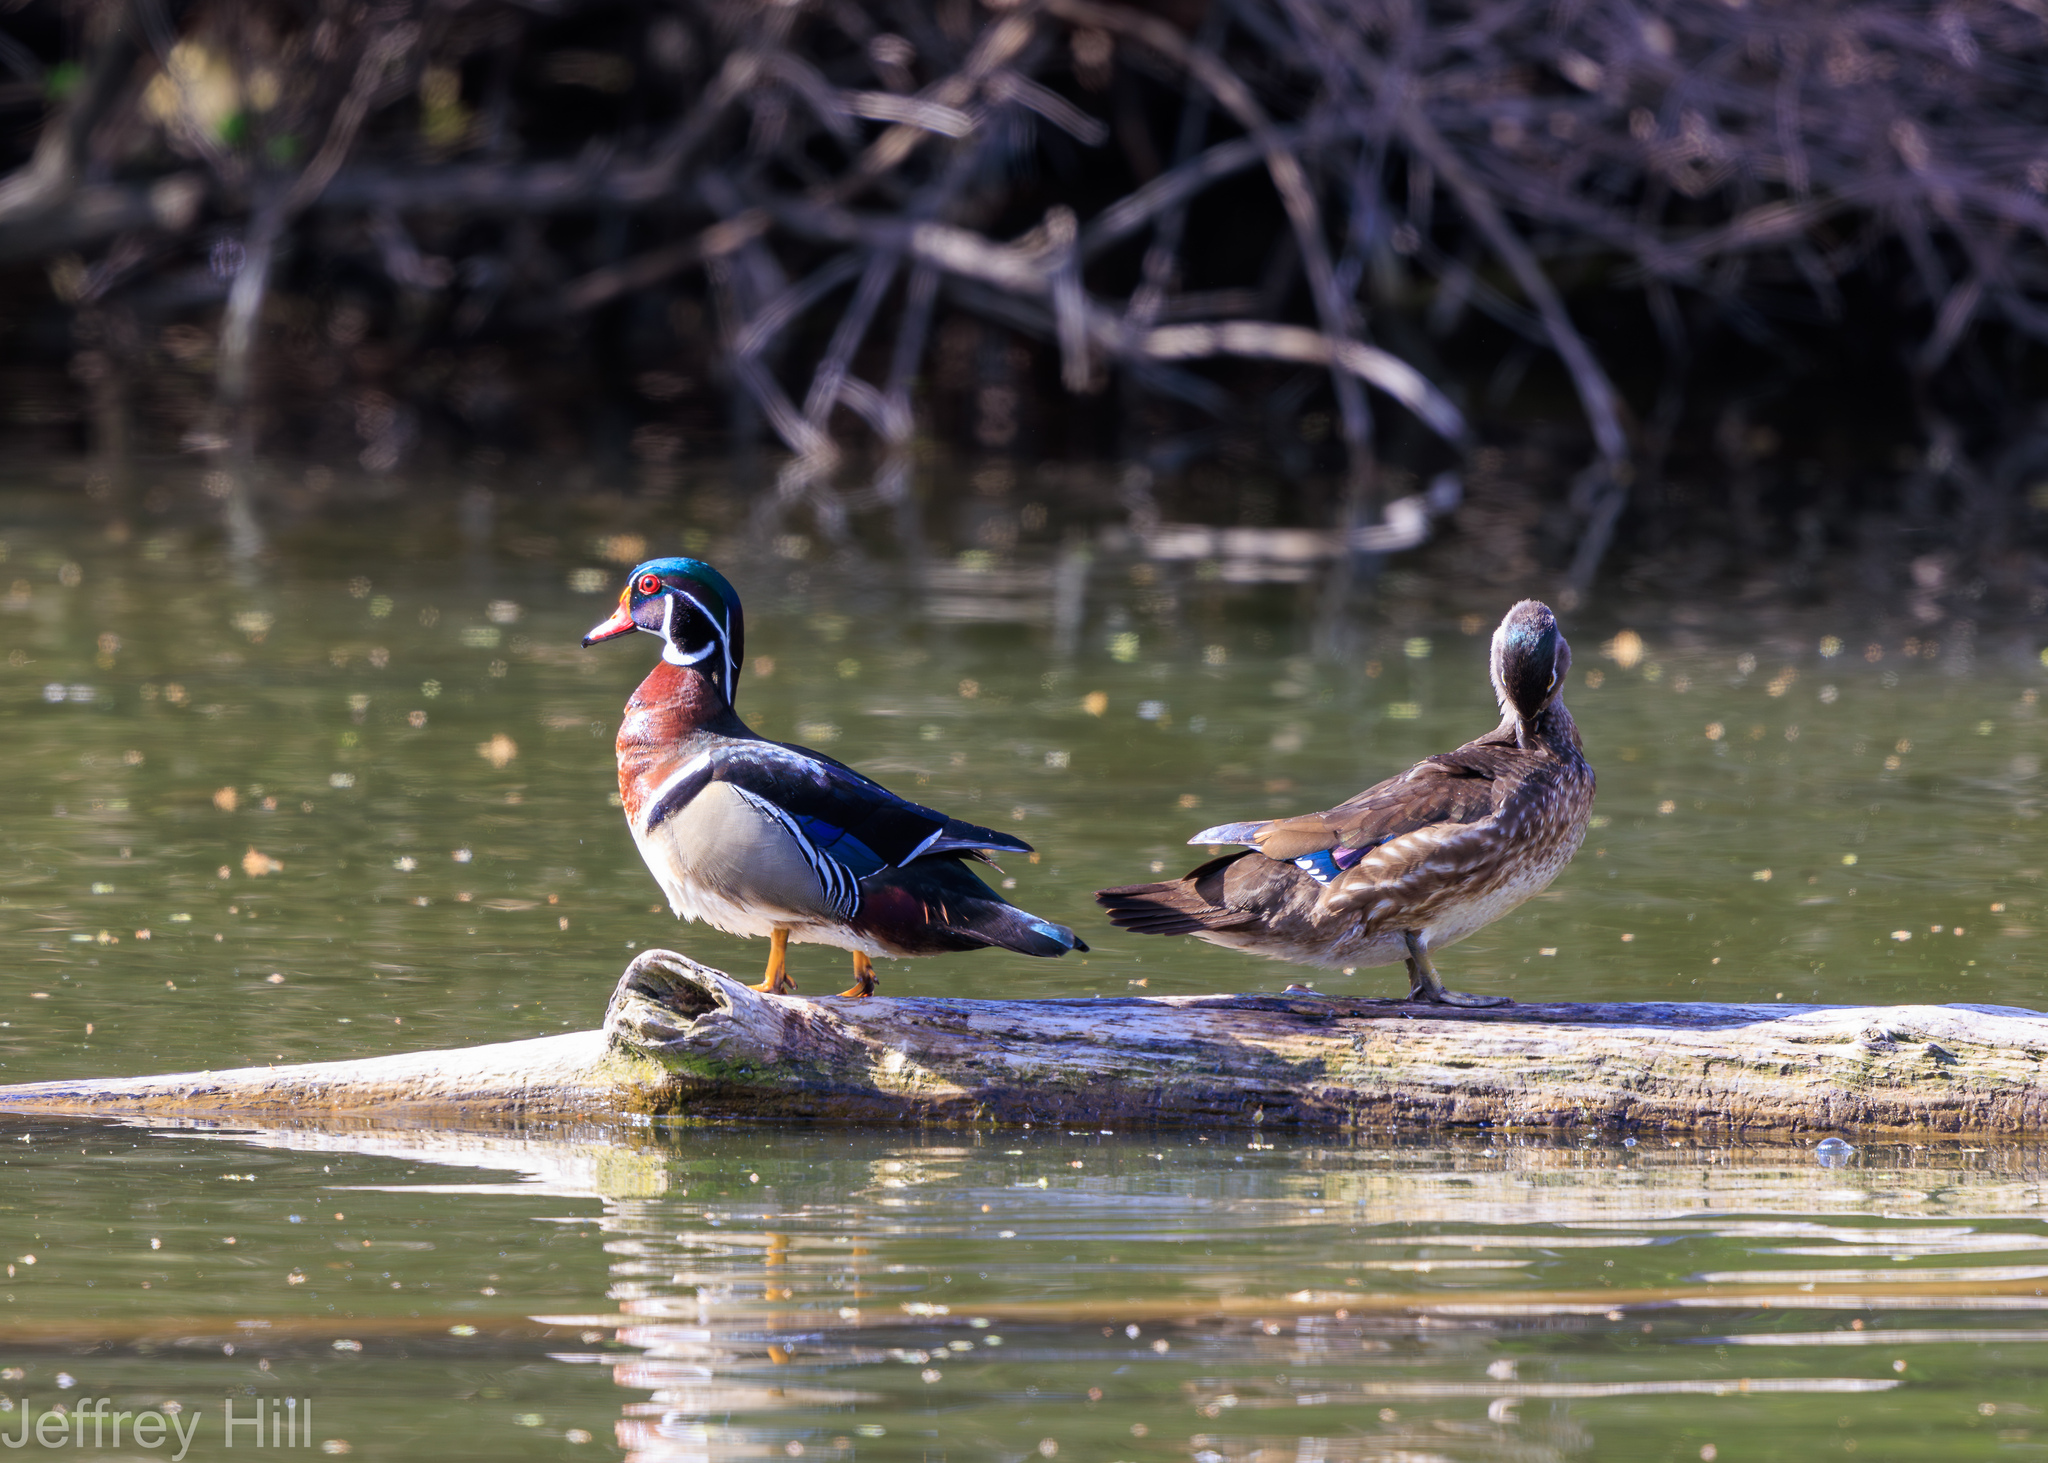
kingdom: Animalia
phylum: Chordata
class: Aves
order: Anseriformes
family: Anatidae
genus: Aix
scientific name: Aix sponsa
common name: Wood duck
